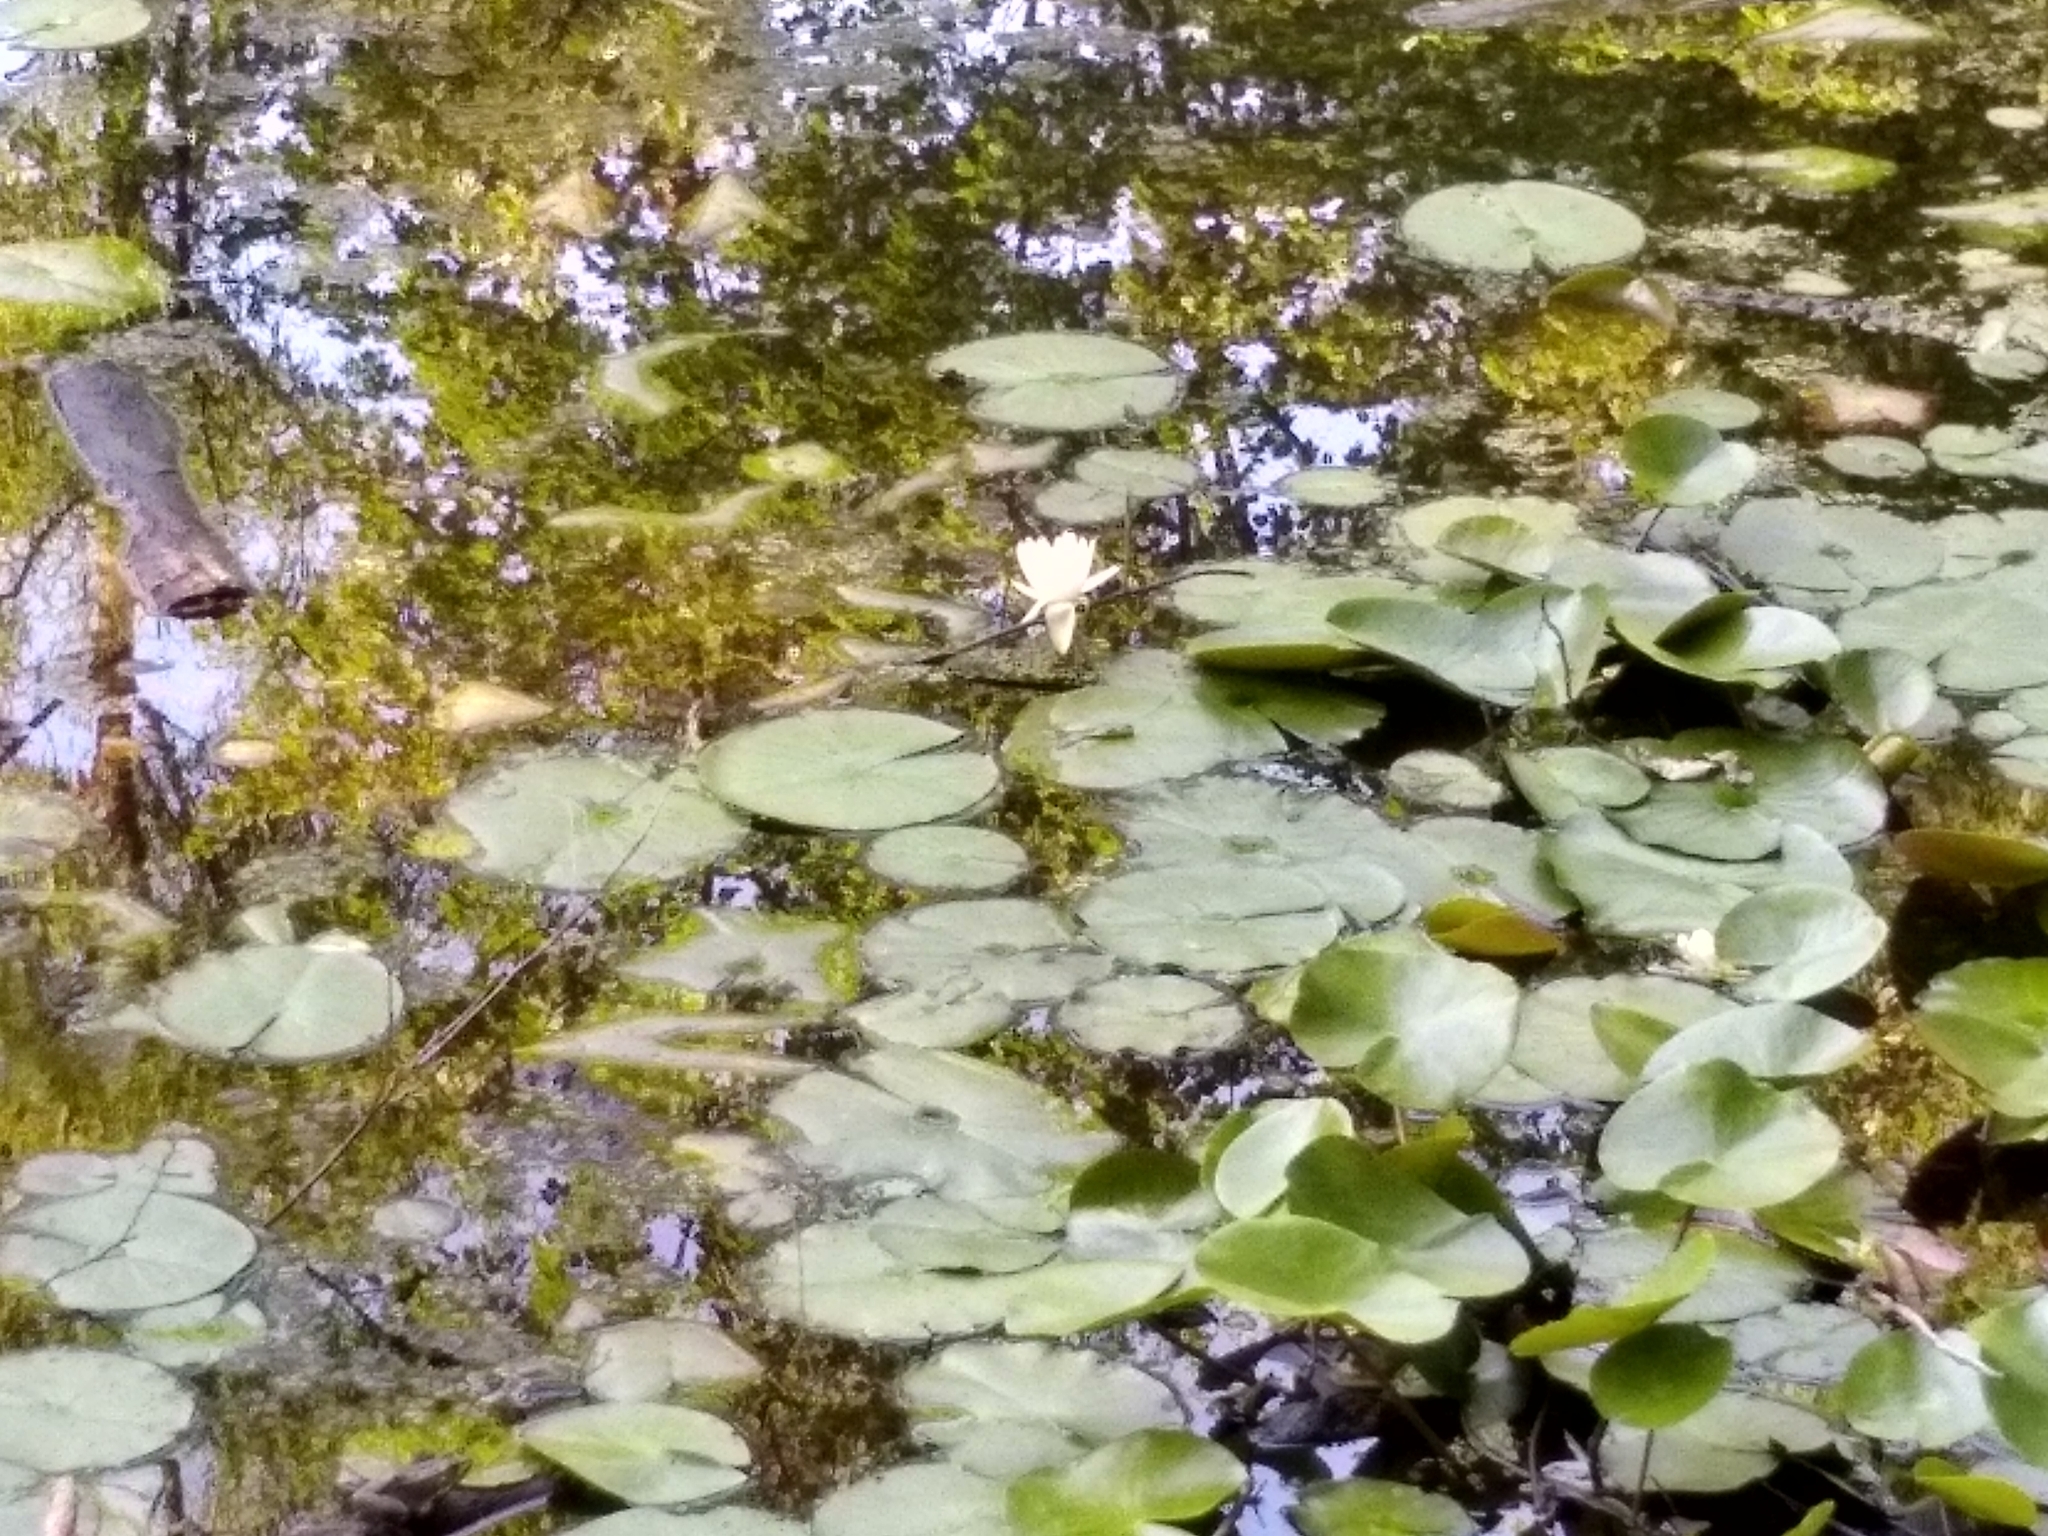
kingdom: Plantae
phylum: Tracheophyta
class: Magnoliopsida
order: Nymphaeales
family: Nymphaeaceae
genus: Nymphaea
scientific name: Nymphaea odorata
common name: Fragrant water-lily
